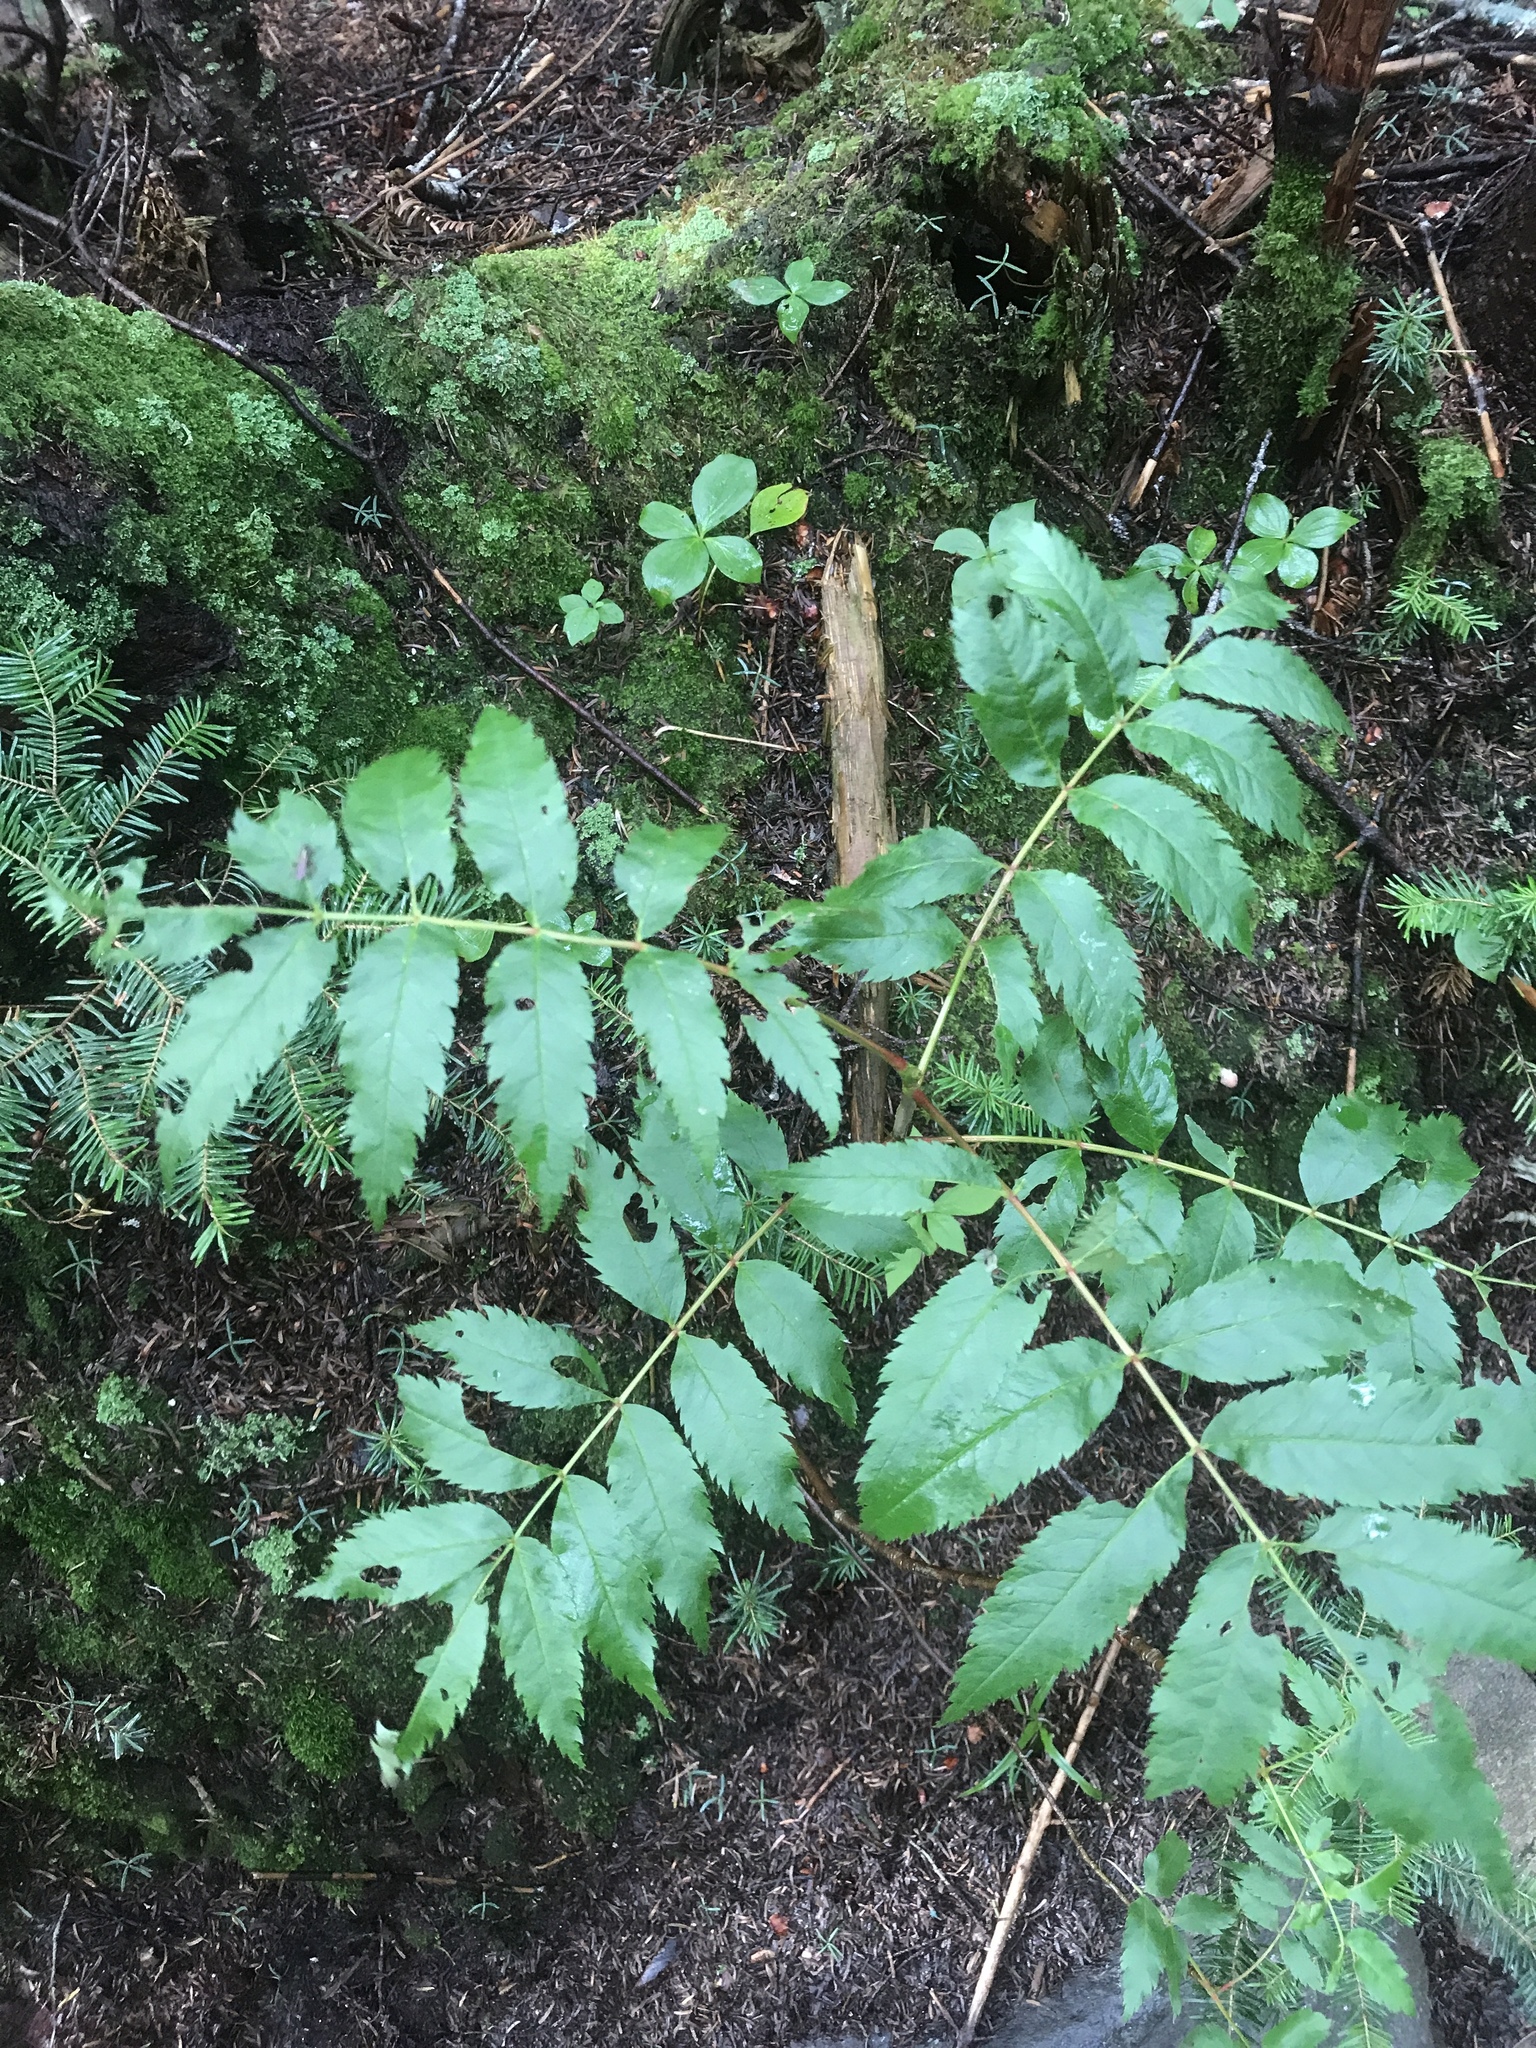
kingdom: Plantae
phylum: Tracheophyta
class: Magnoliopsida
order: Rosales
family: Rosaceae
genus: Sorbus
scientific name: Sorbus americana
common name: American mountain-ash
